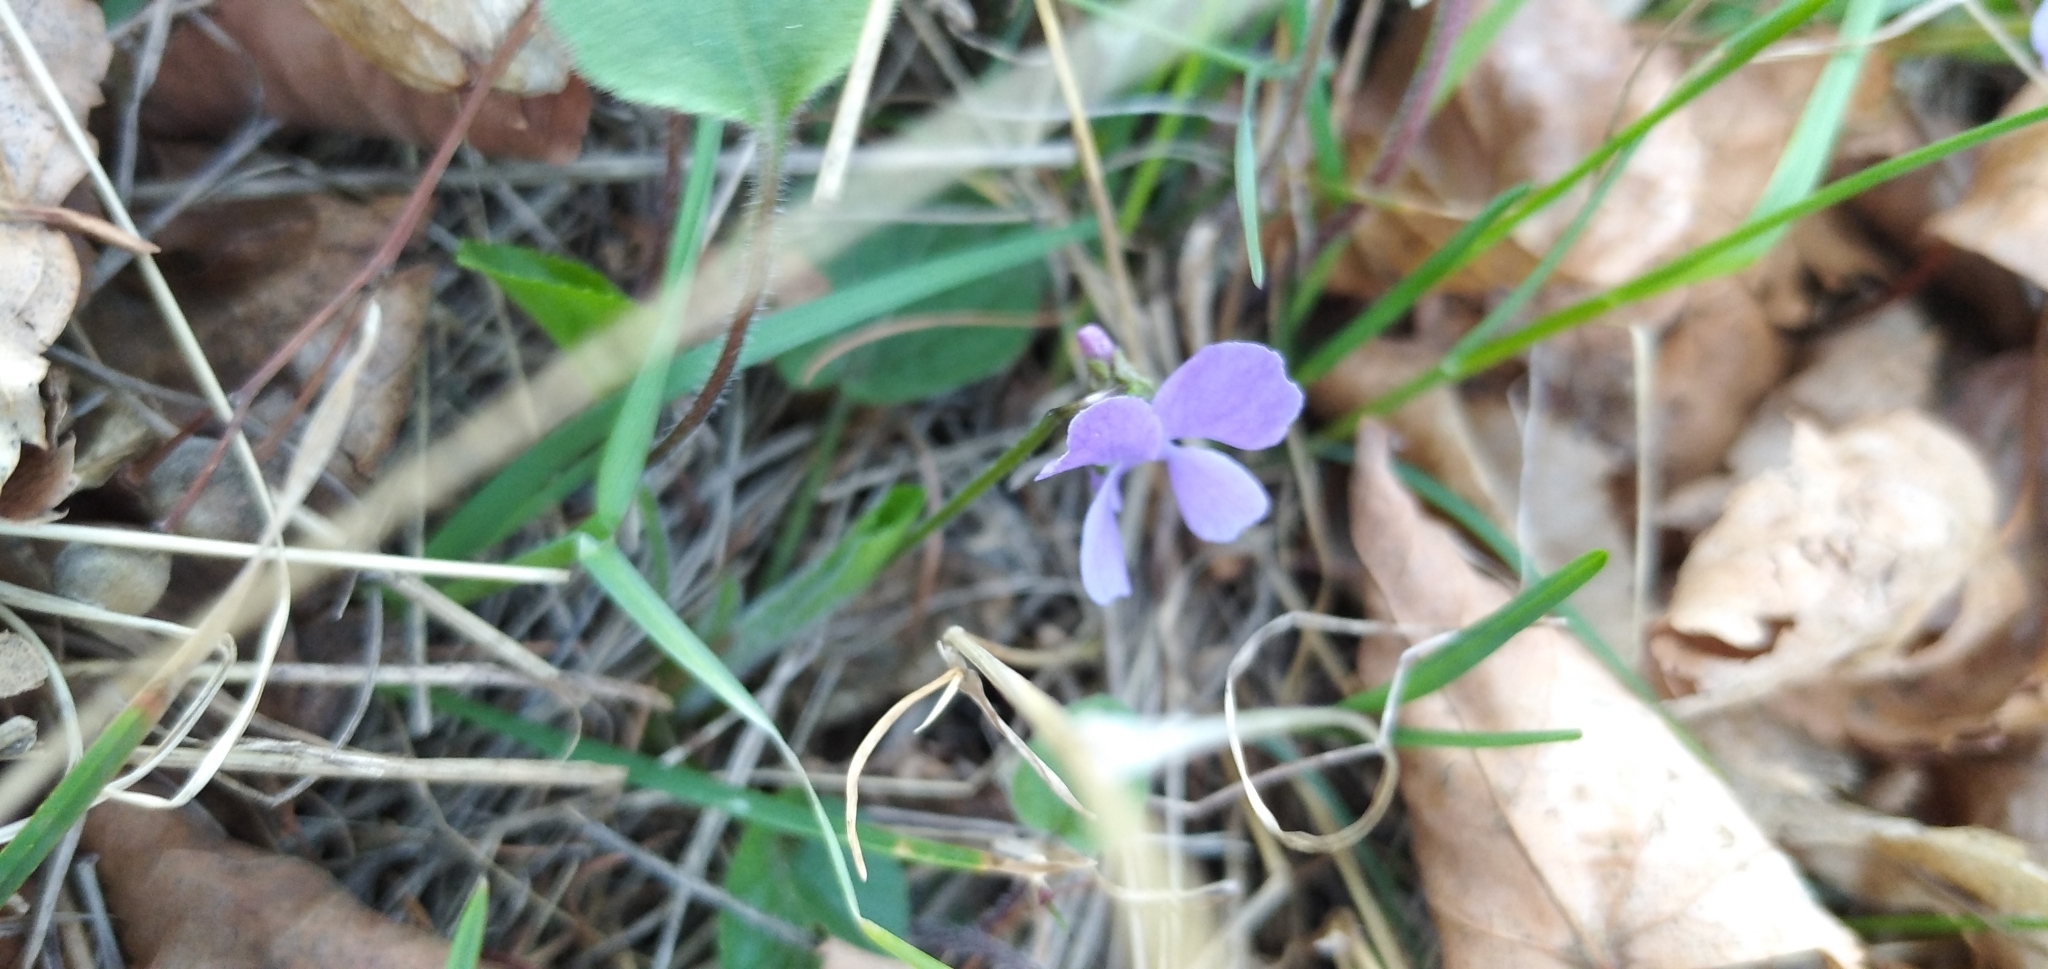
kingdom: Plantae
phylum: Tracheophyta
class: Magnoliopsida
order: Malpighiales
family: Violaceae
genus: Viola
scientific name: Viola ambigua
